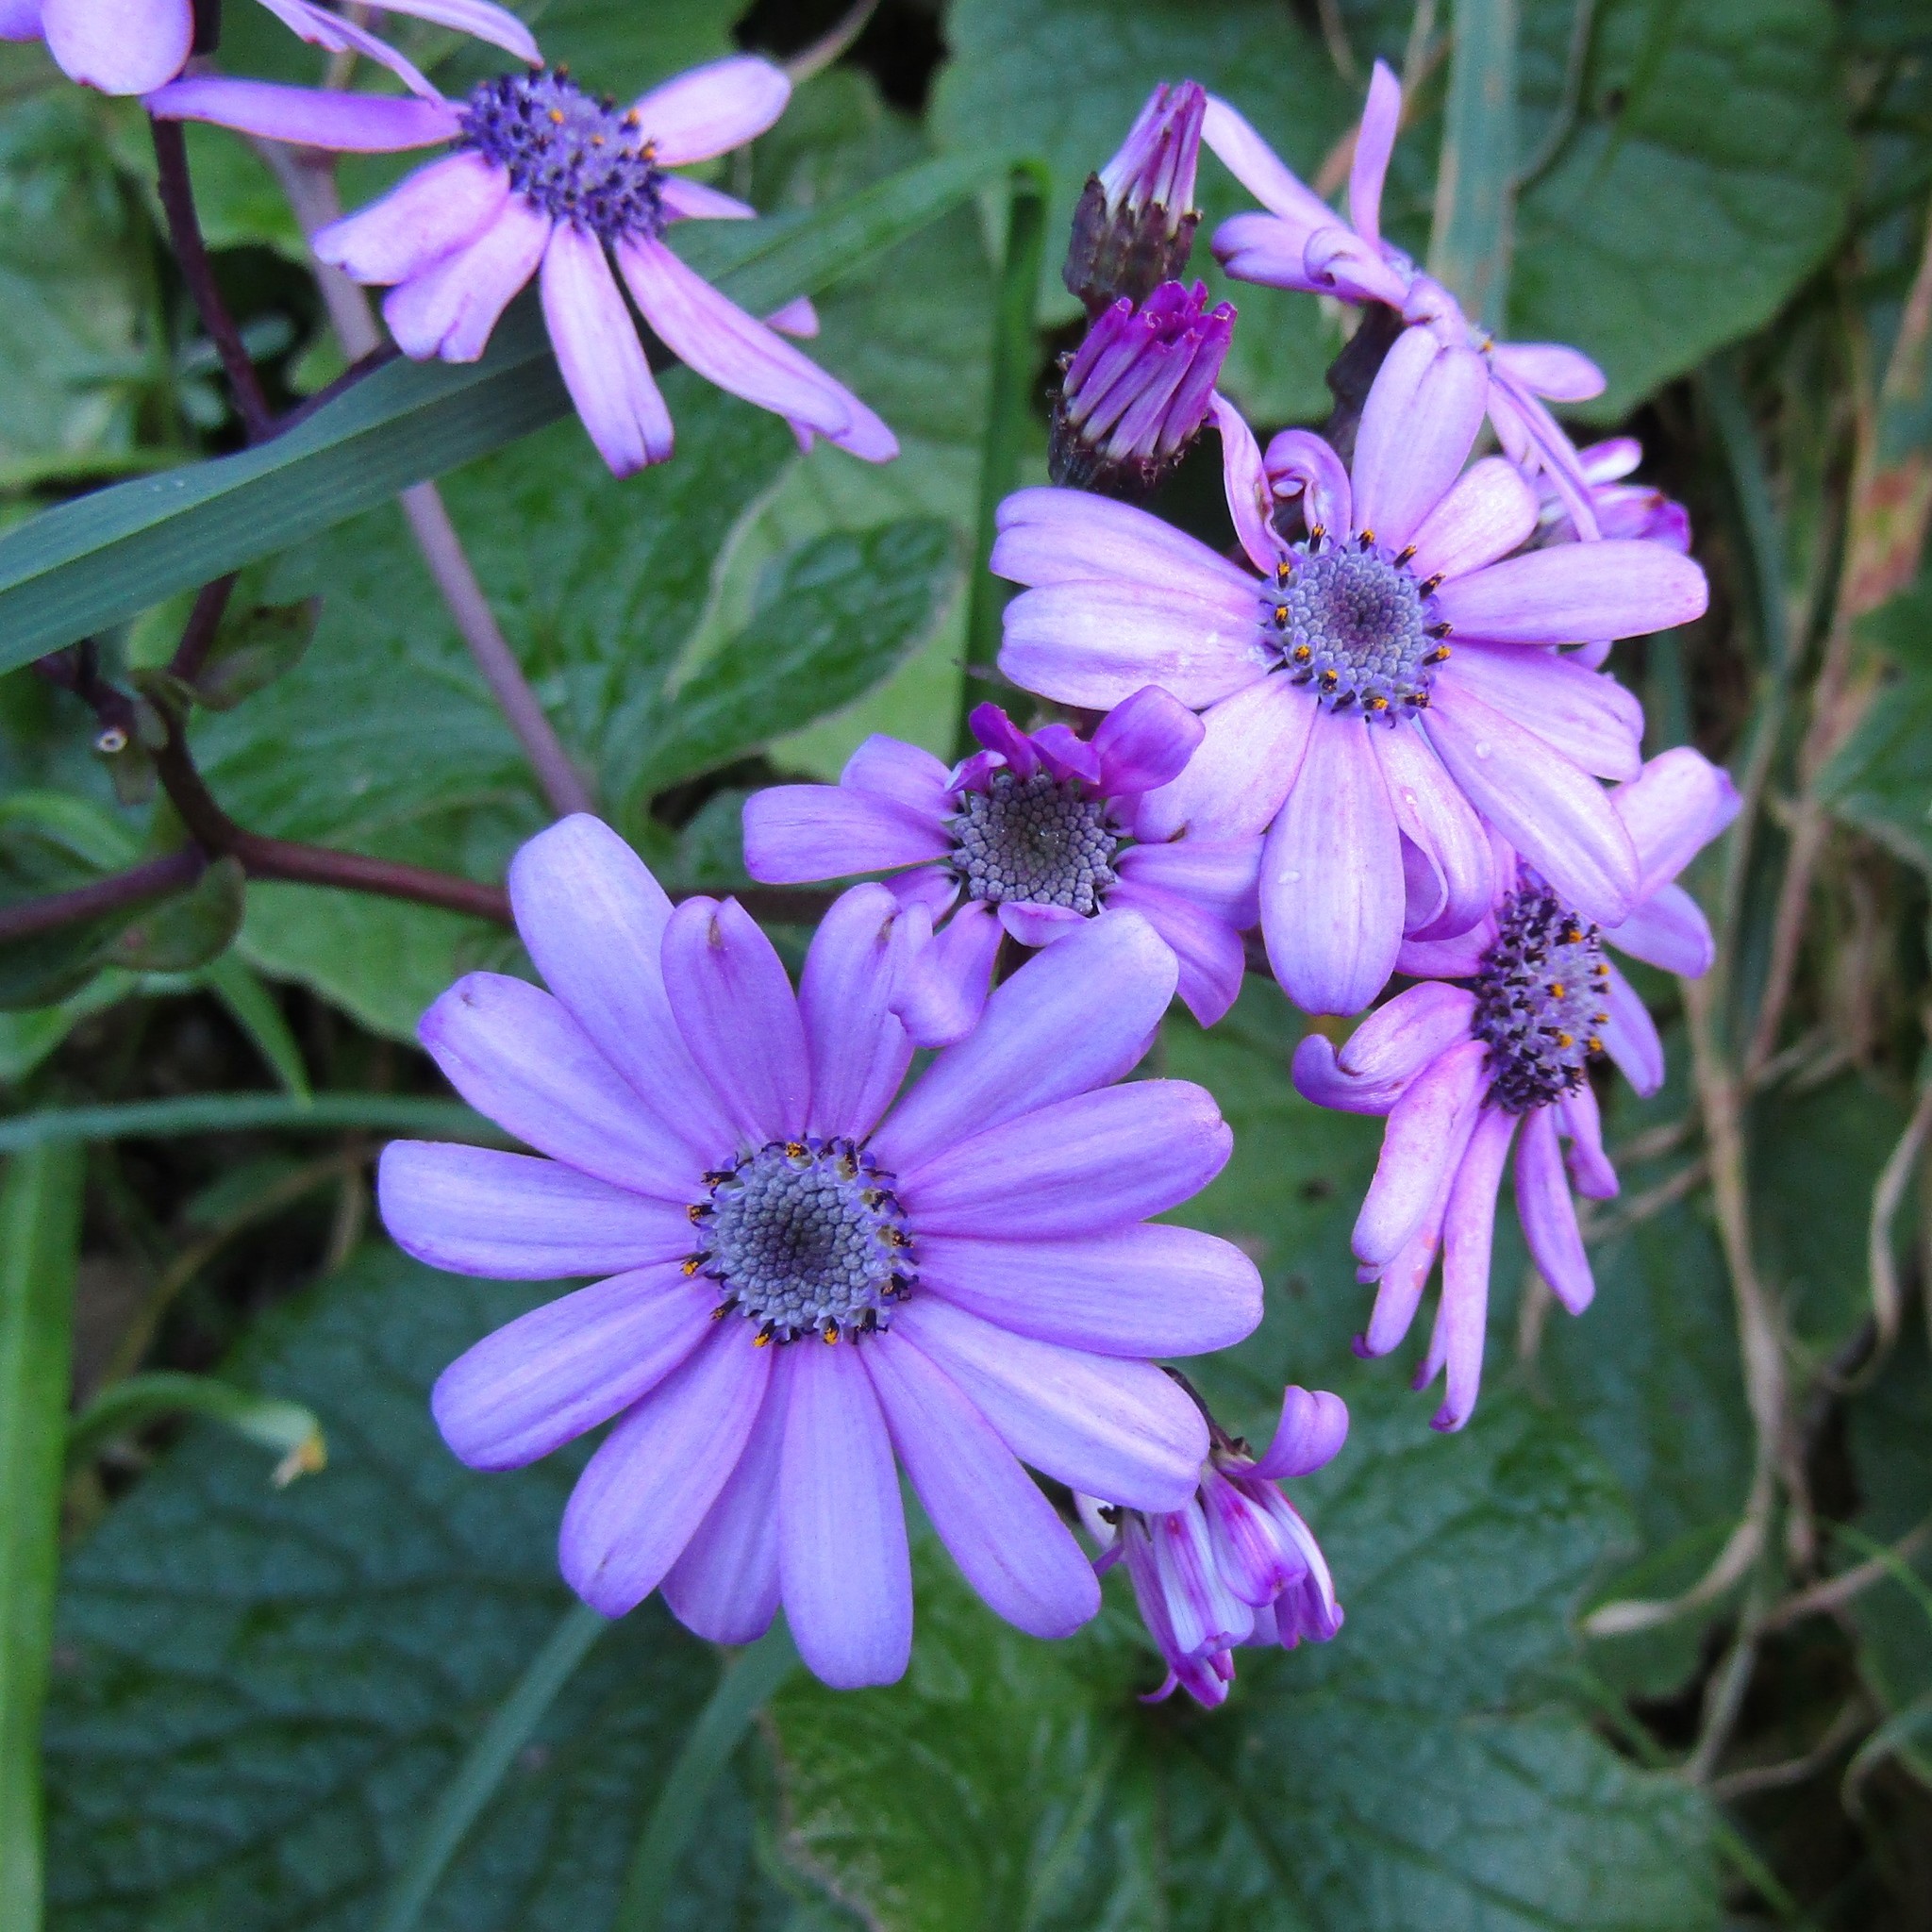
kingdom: Plantae
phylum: Tracheophyta
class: Magnoliopsida
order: Asterales
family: Asteraceae
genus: Pericallis
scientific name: Pericallis hybrida
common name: Cineraria
